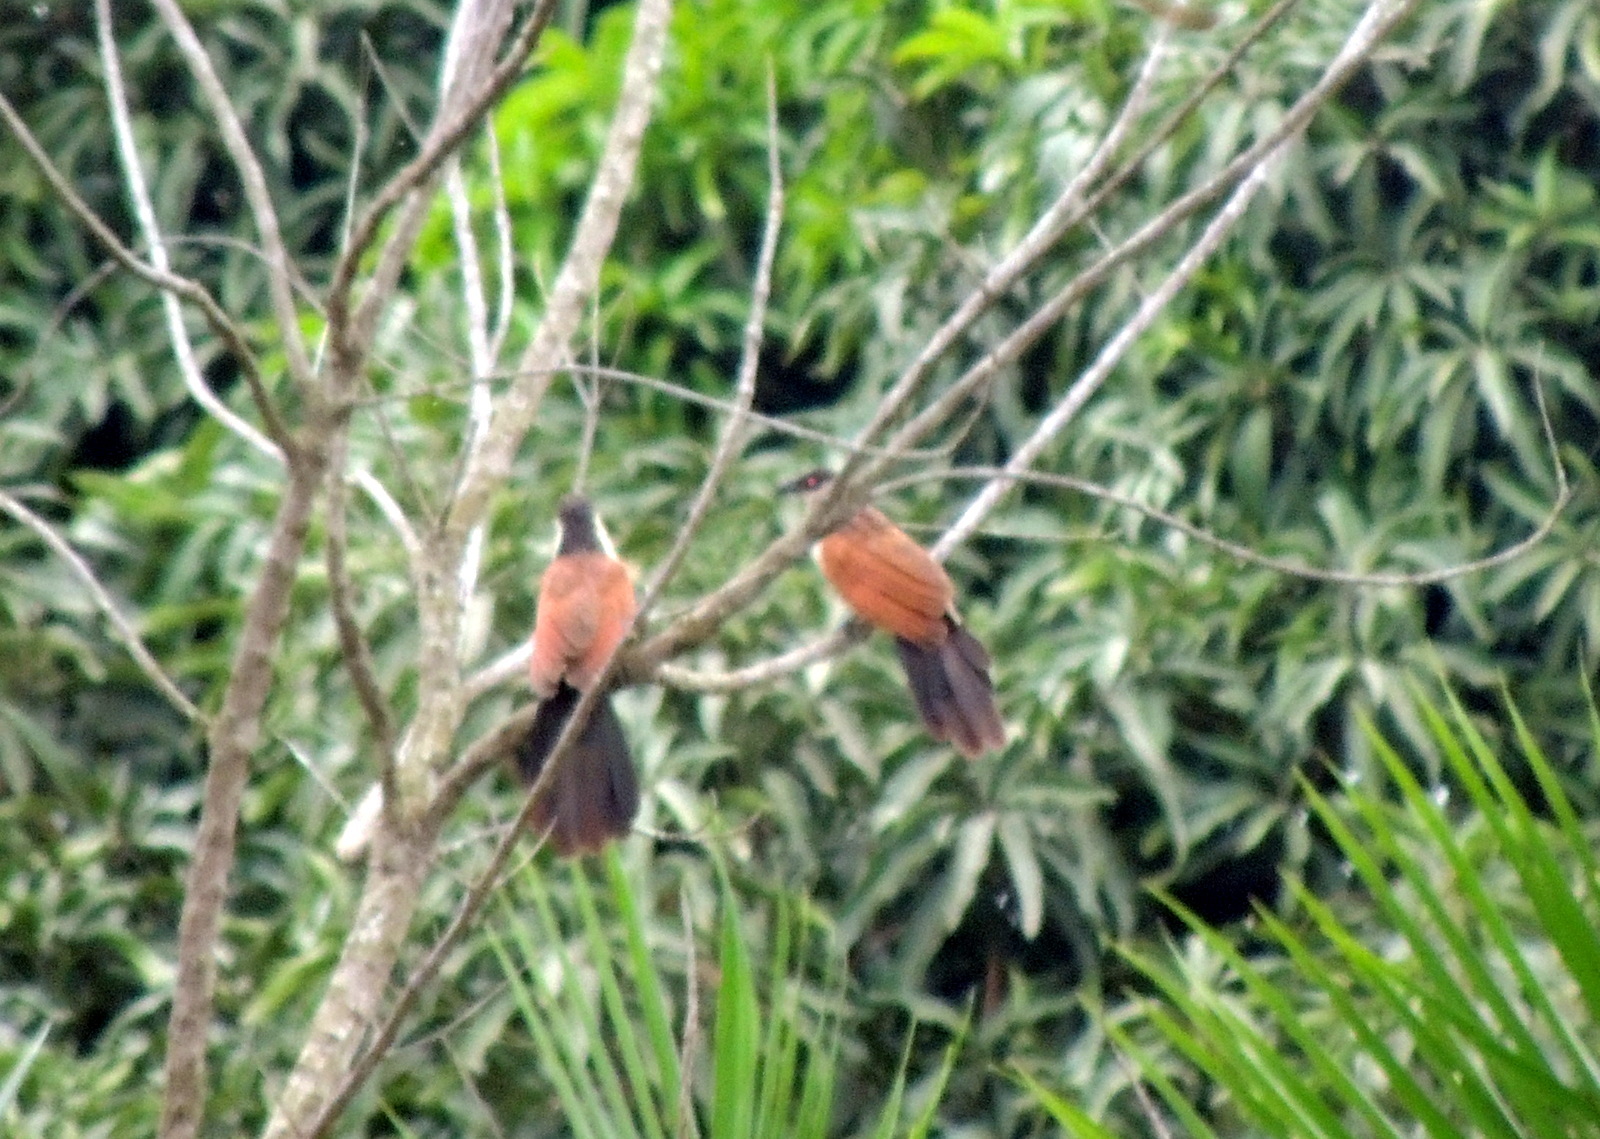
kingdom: Animalia
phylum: Chordata
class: Aves
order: Cuculiformes
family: Cuculidae
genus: Centropus
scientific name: Centropus senegalensis
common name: Senegal coucal
